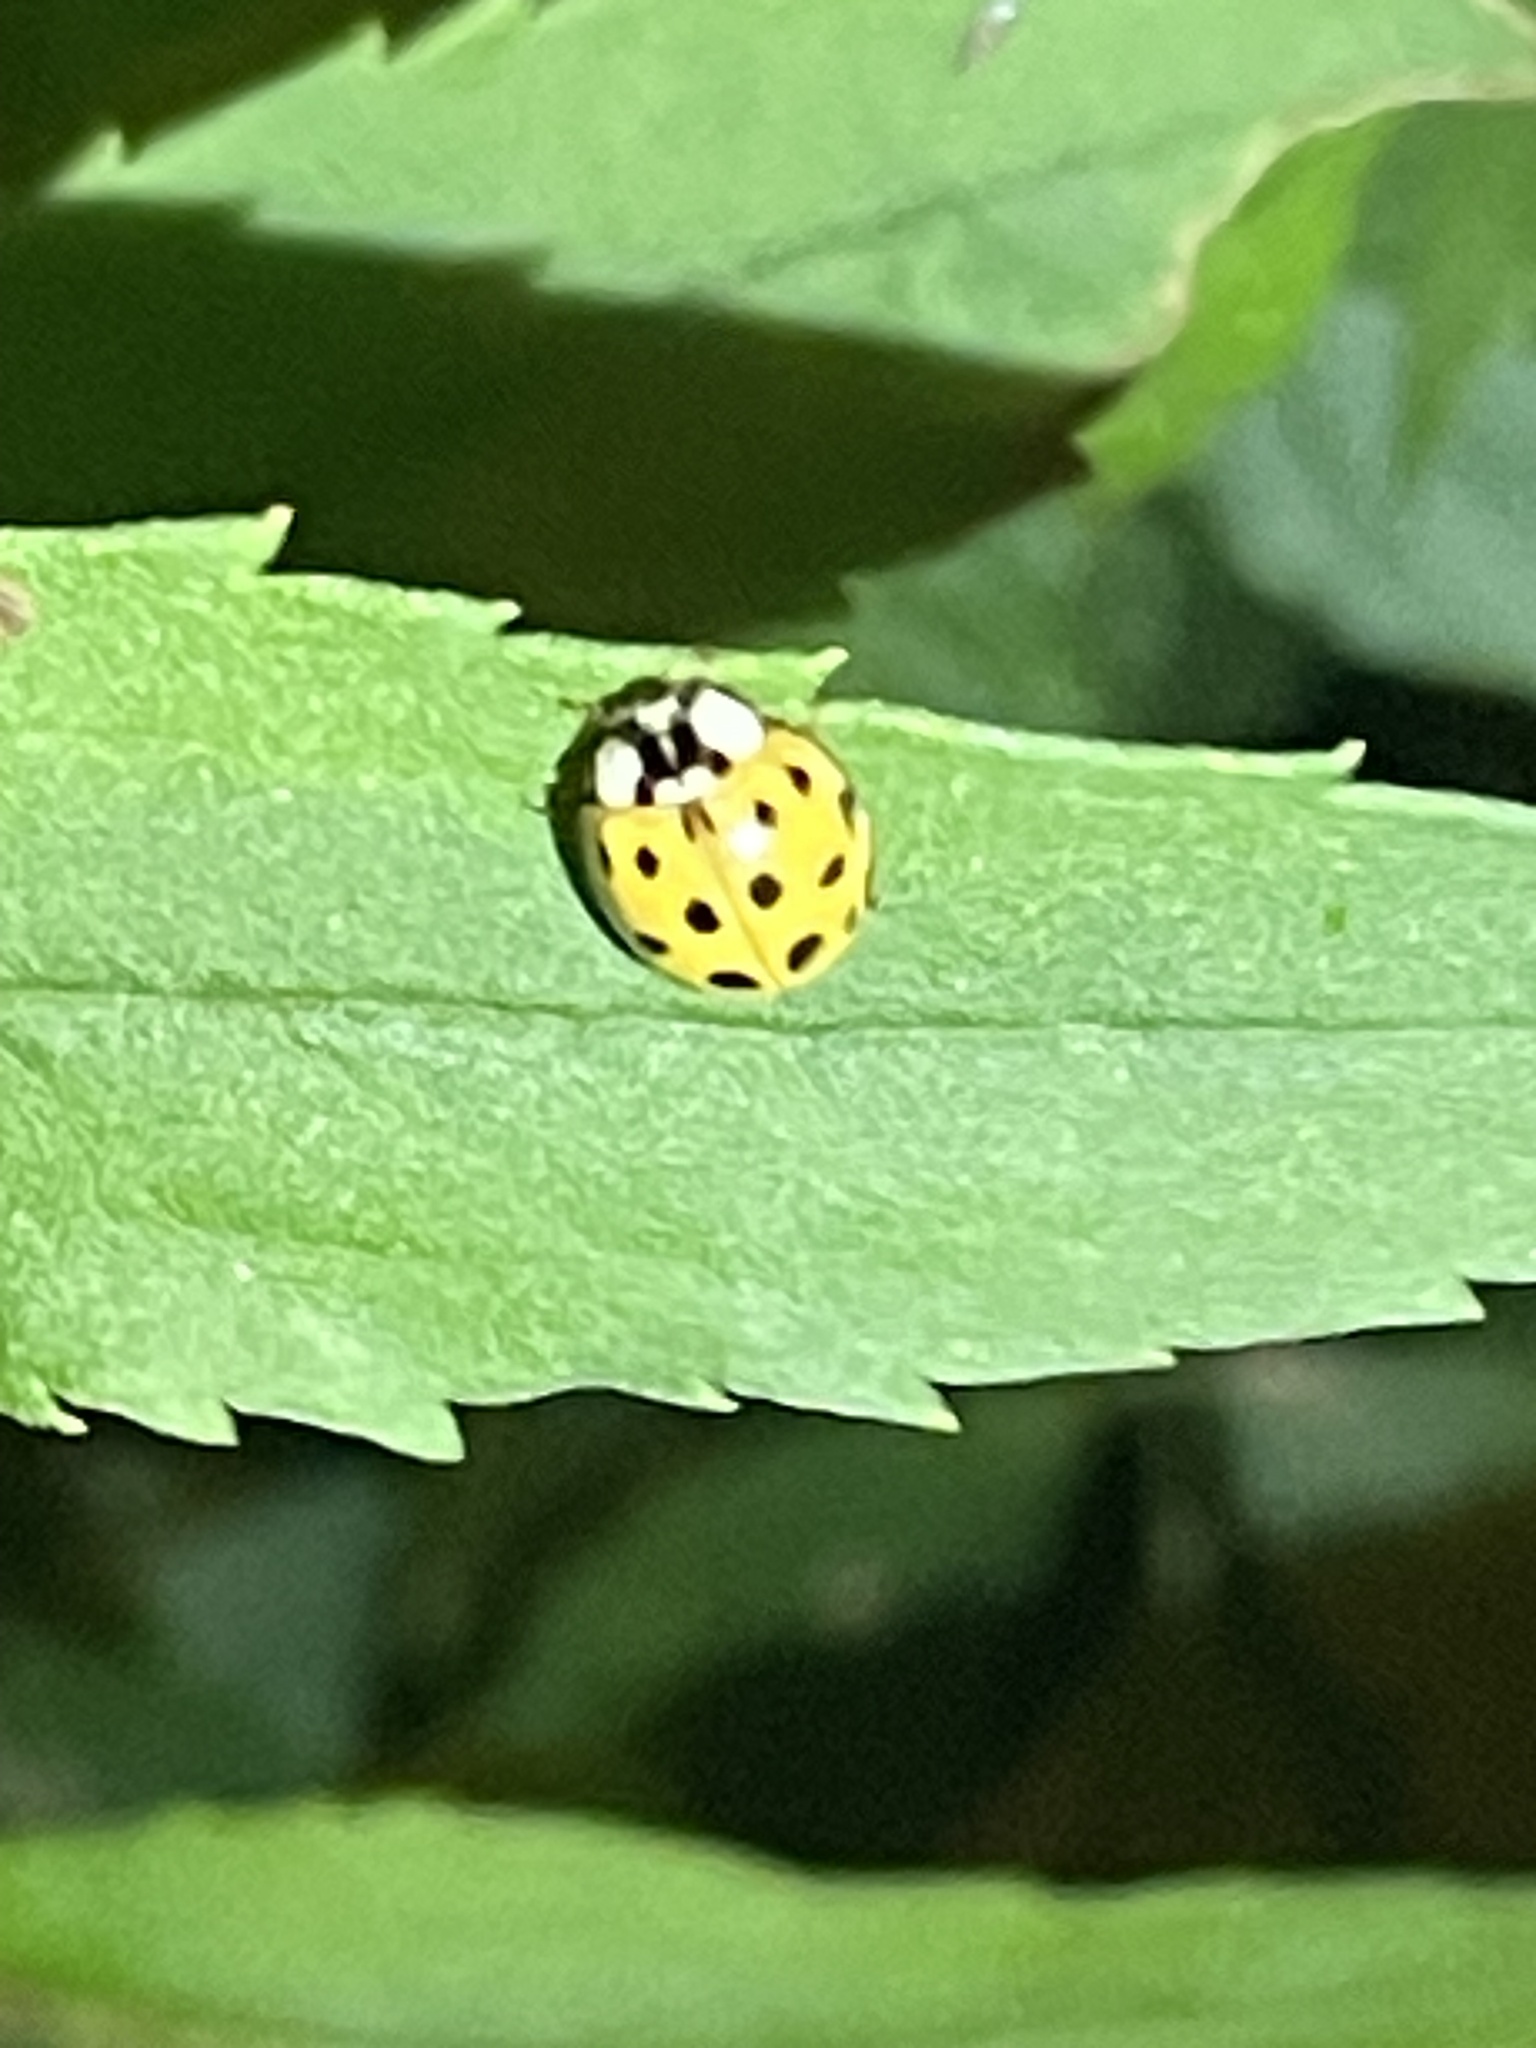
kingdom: Animalia
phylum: Arthropoda
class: Insecta
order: Coleoptera
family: Coccinellidae
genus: Harmonia
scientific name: Harmonia axyridis
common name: Harlequin ladybird
